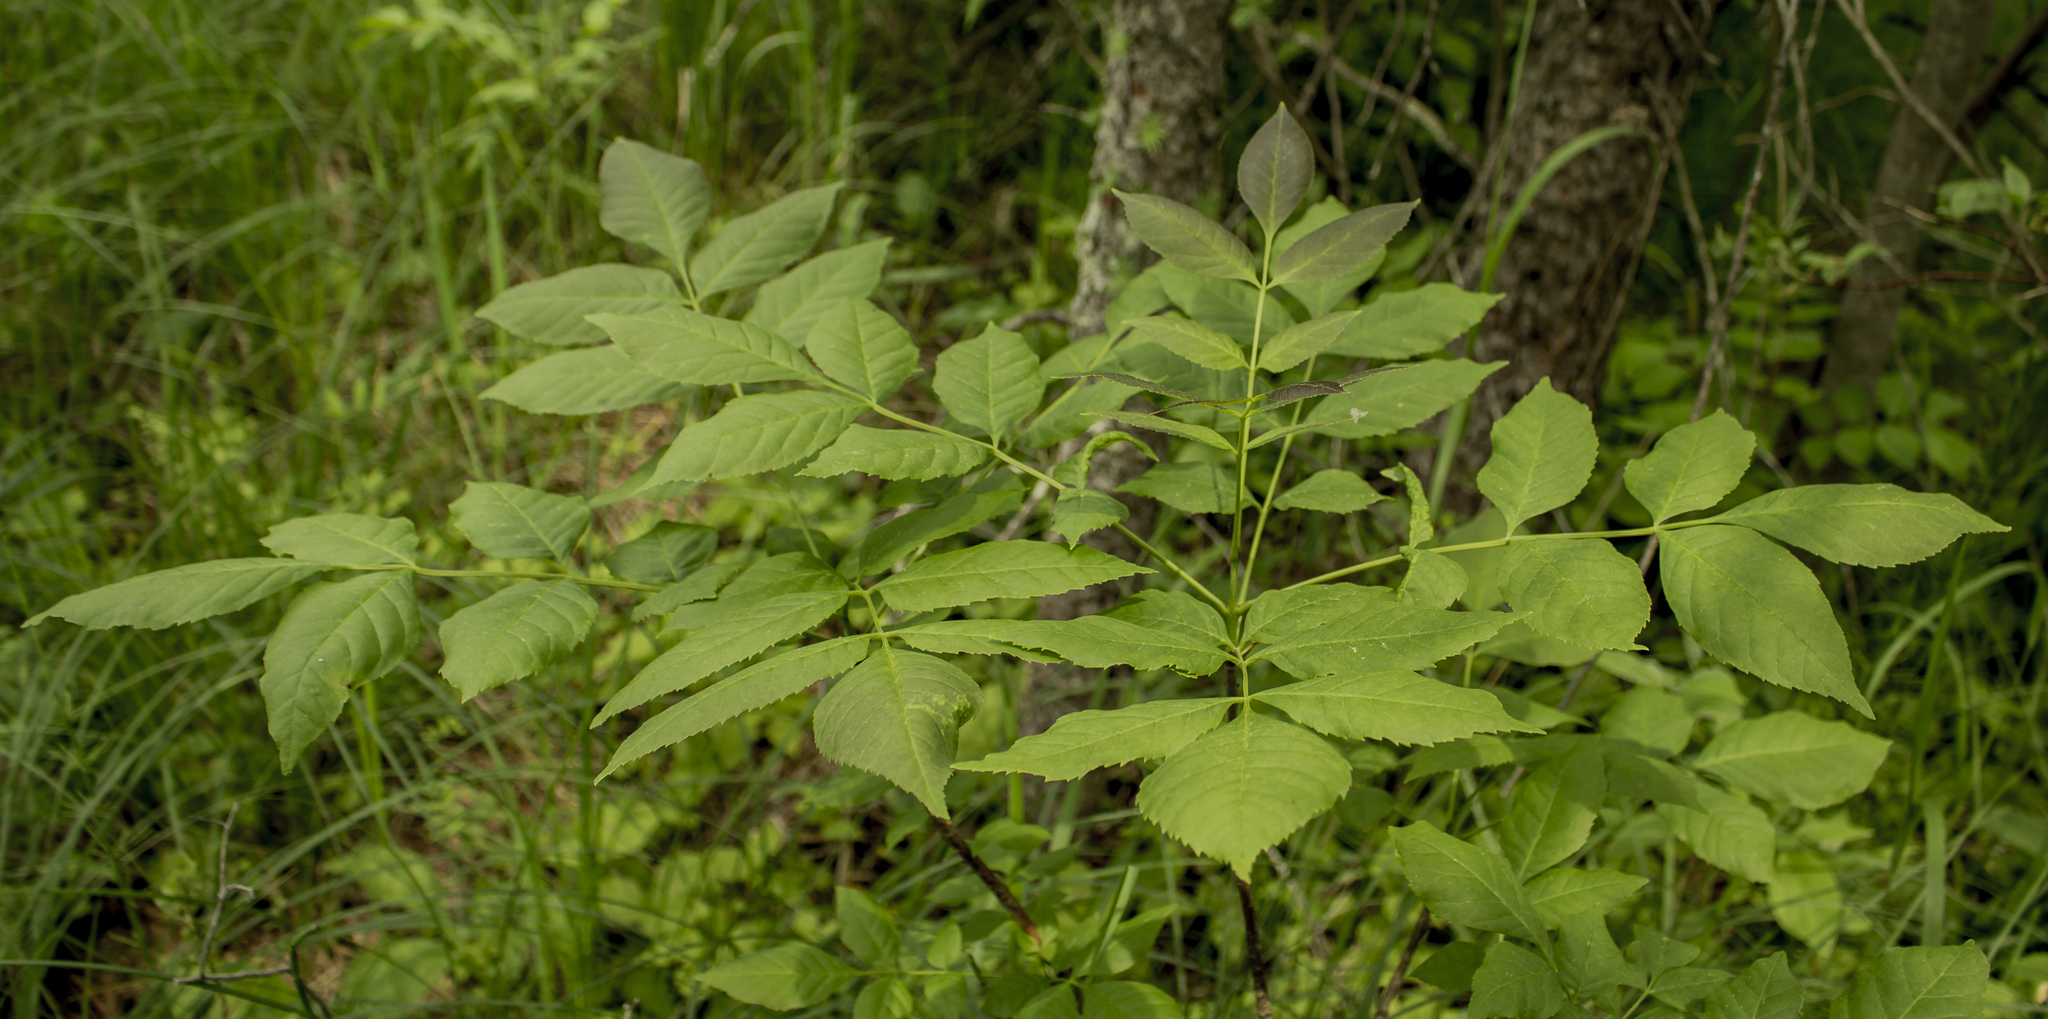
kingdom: Plantae
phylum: Tracheophyta
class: Magnoliopsida
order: Lamiales
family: Oleaceae
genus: Fraxinus
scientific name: Fraxinus pennsylvanica
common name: Green ash
